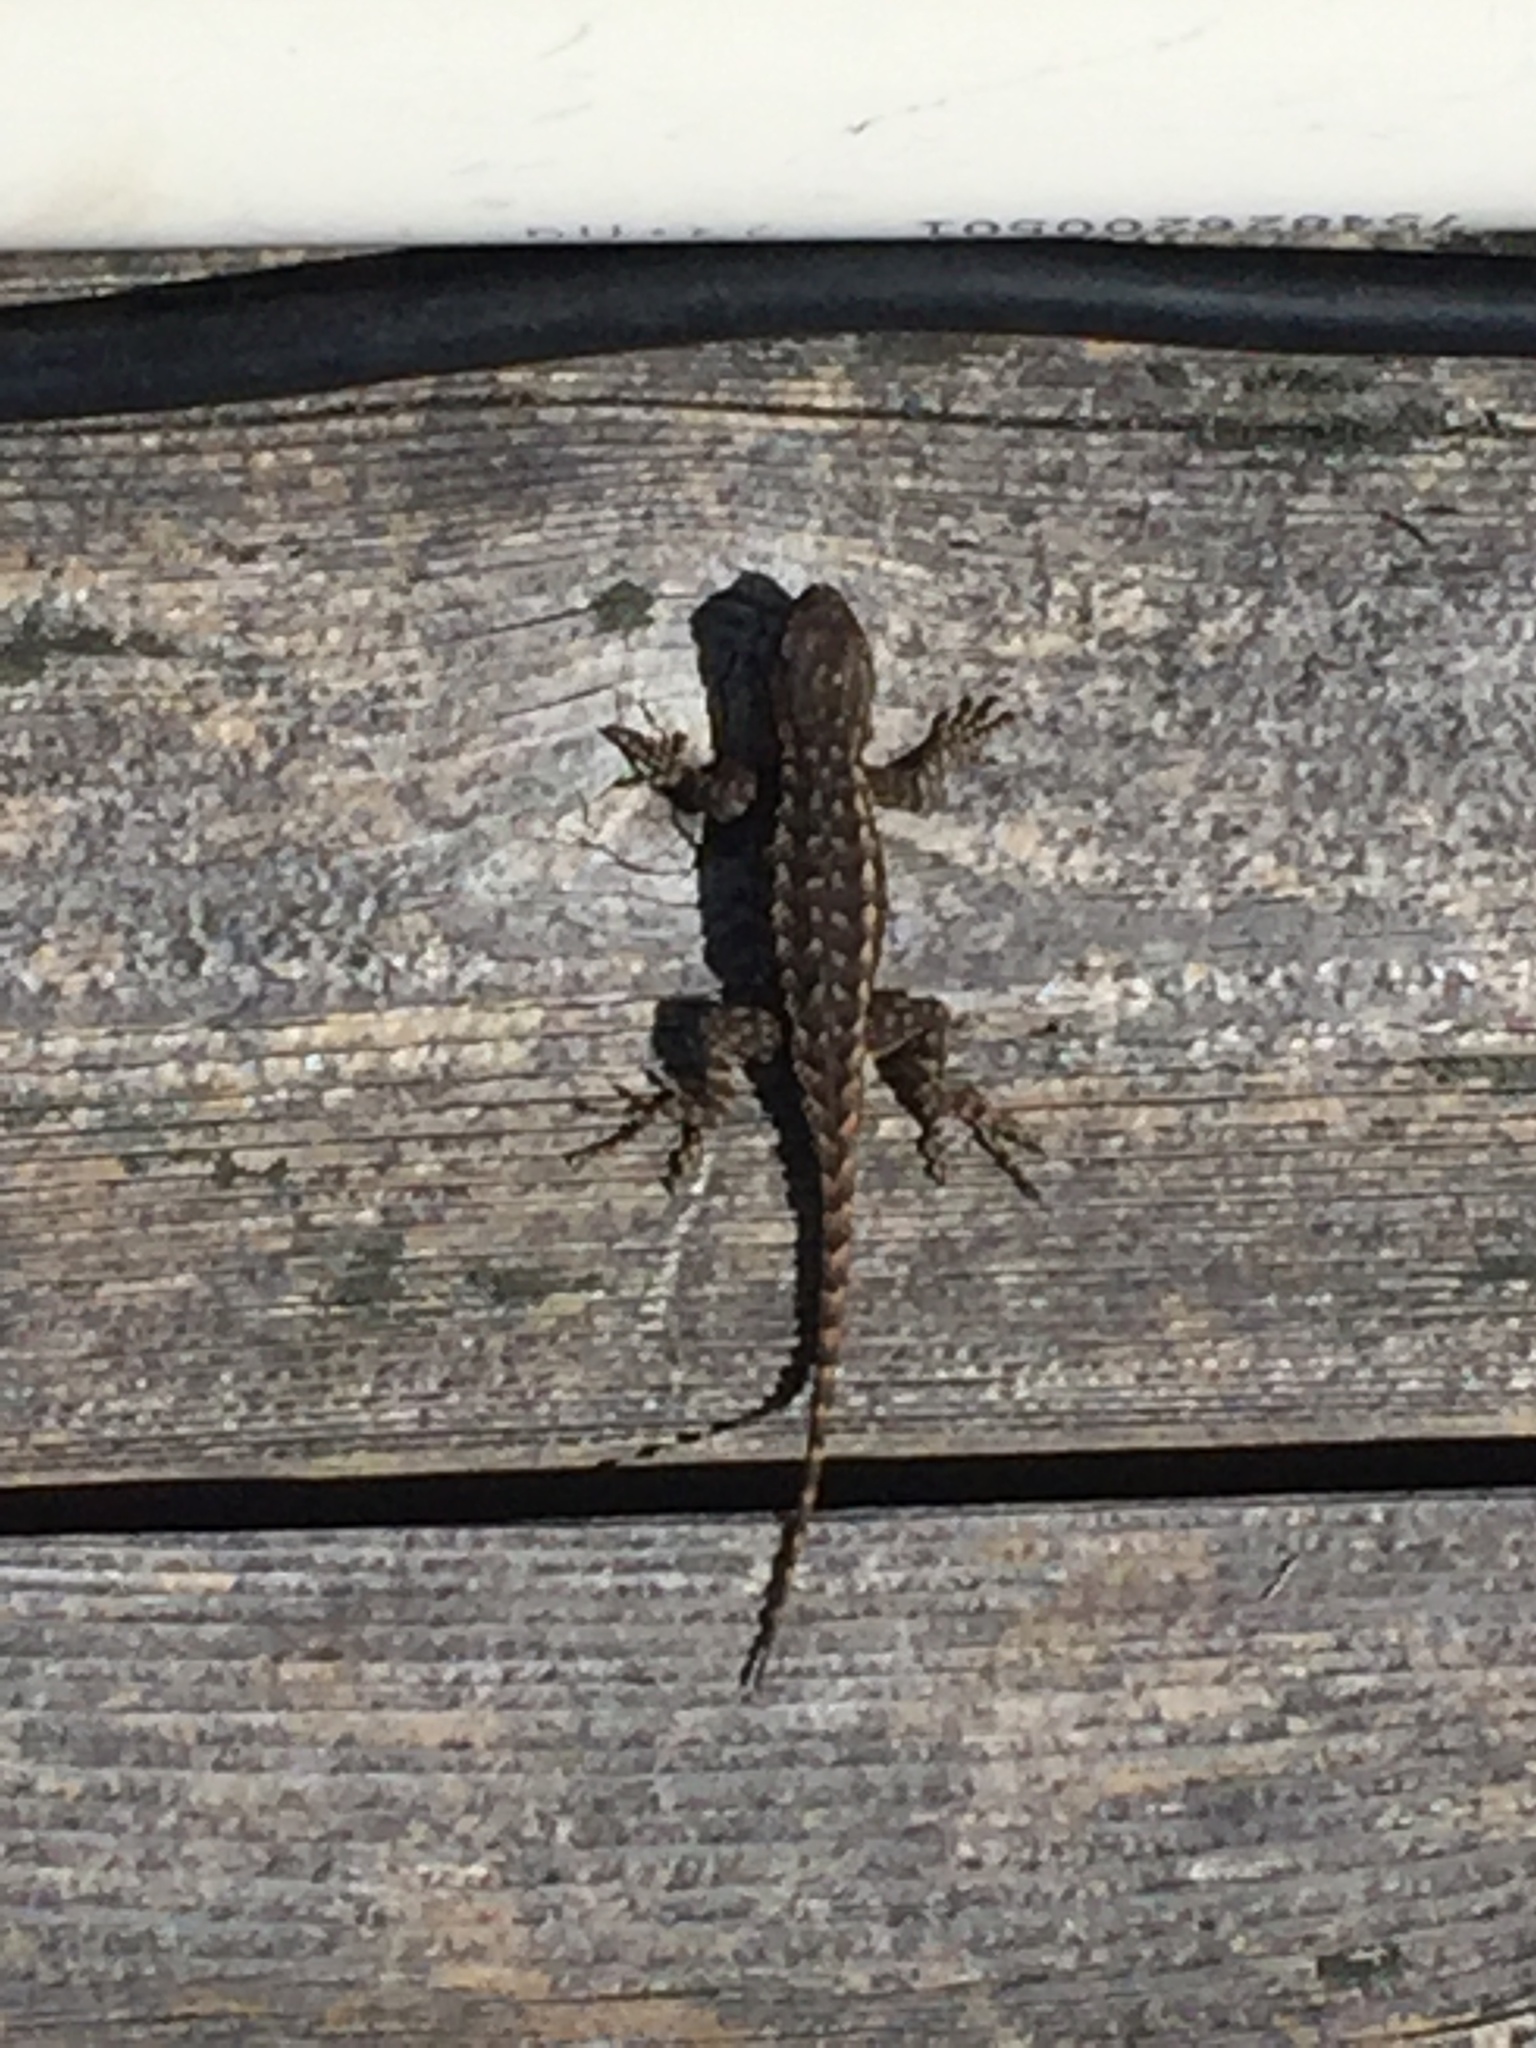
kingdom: Animalia
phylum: Chordata
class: Squamata
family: Phrynosomatidae
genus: Sceloporus
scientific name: Sceloporus occidentalis
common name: Western fence lizard
